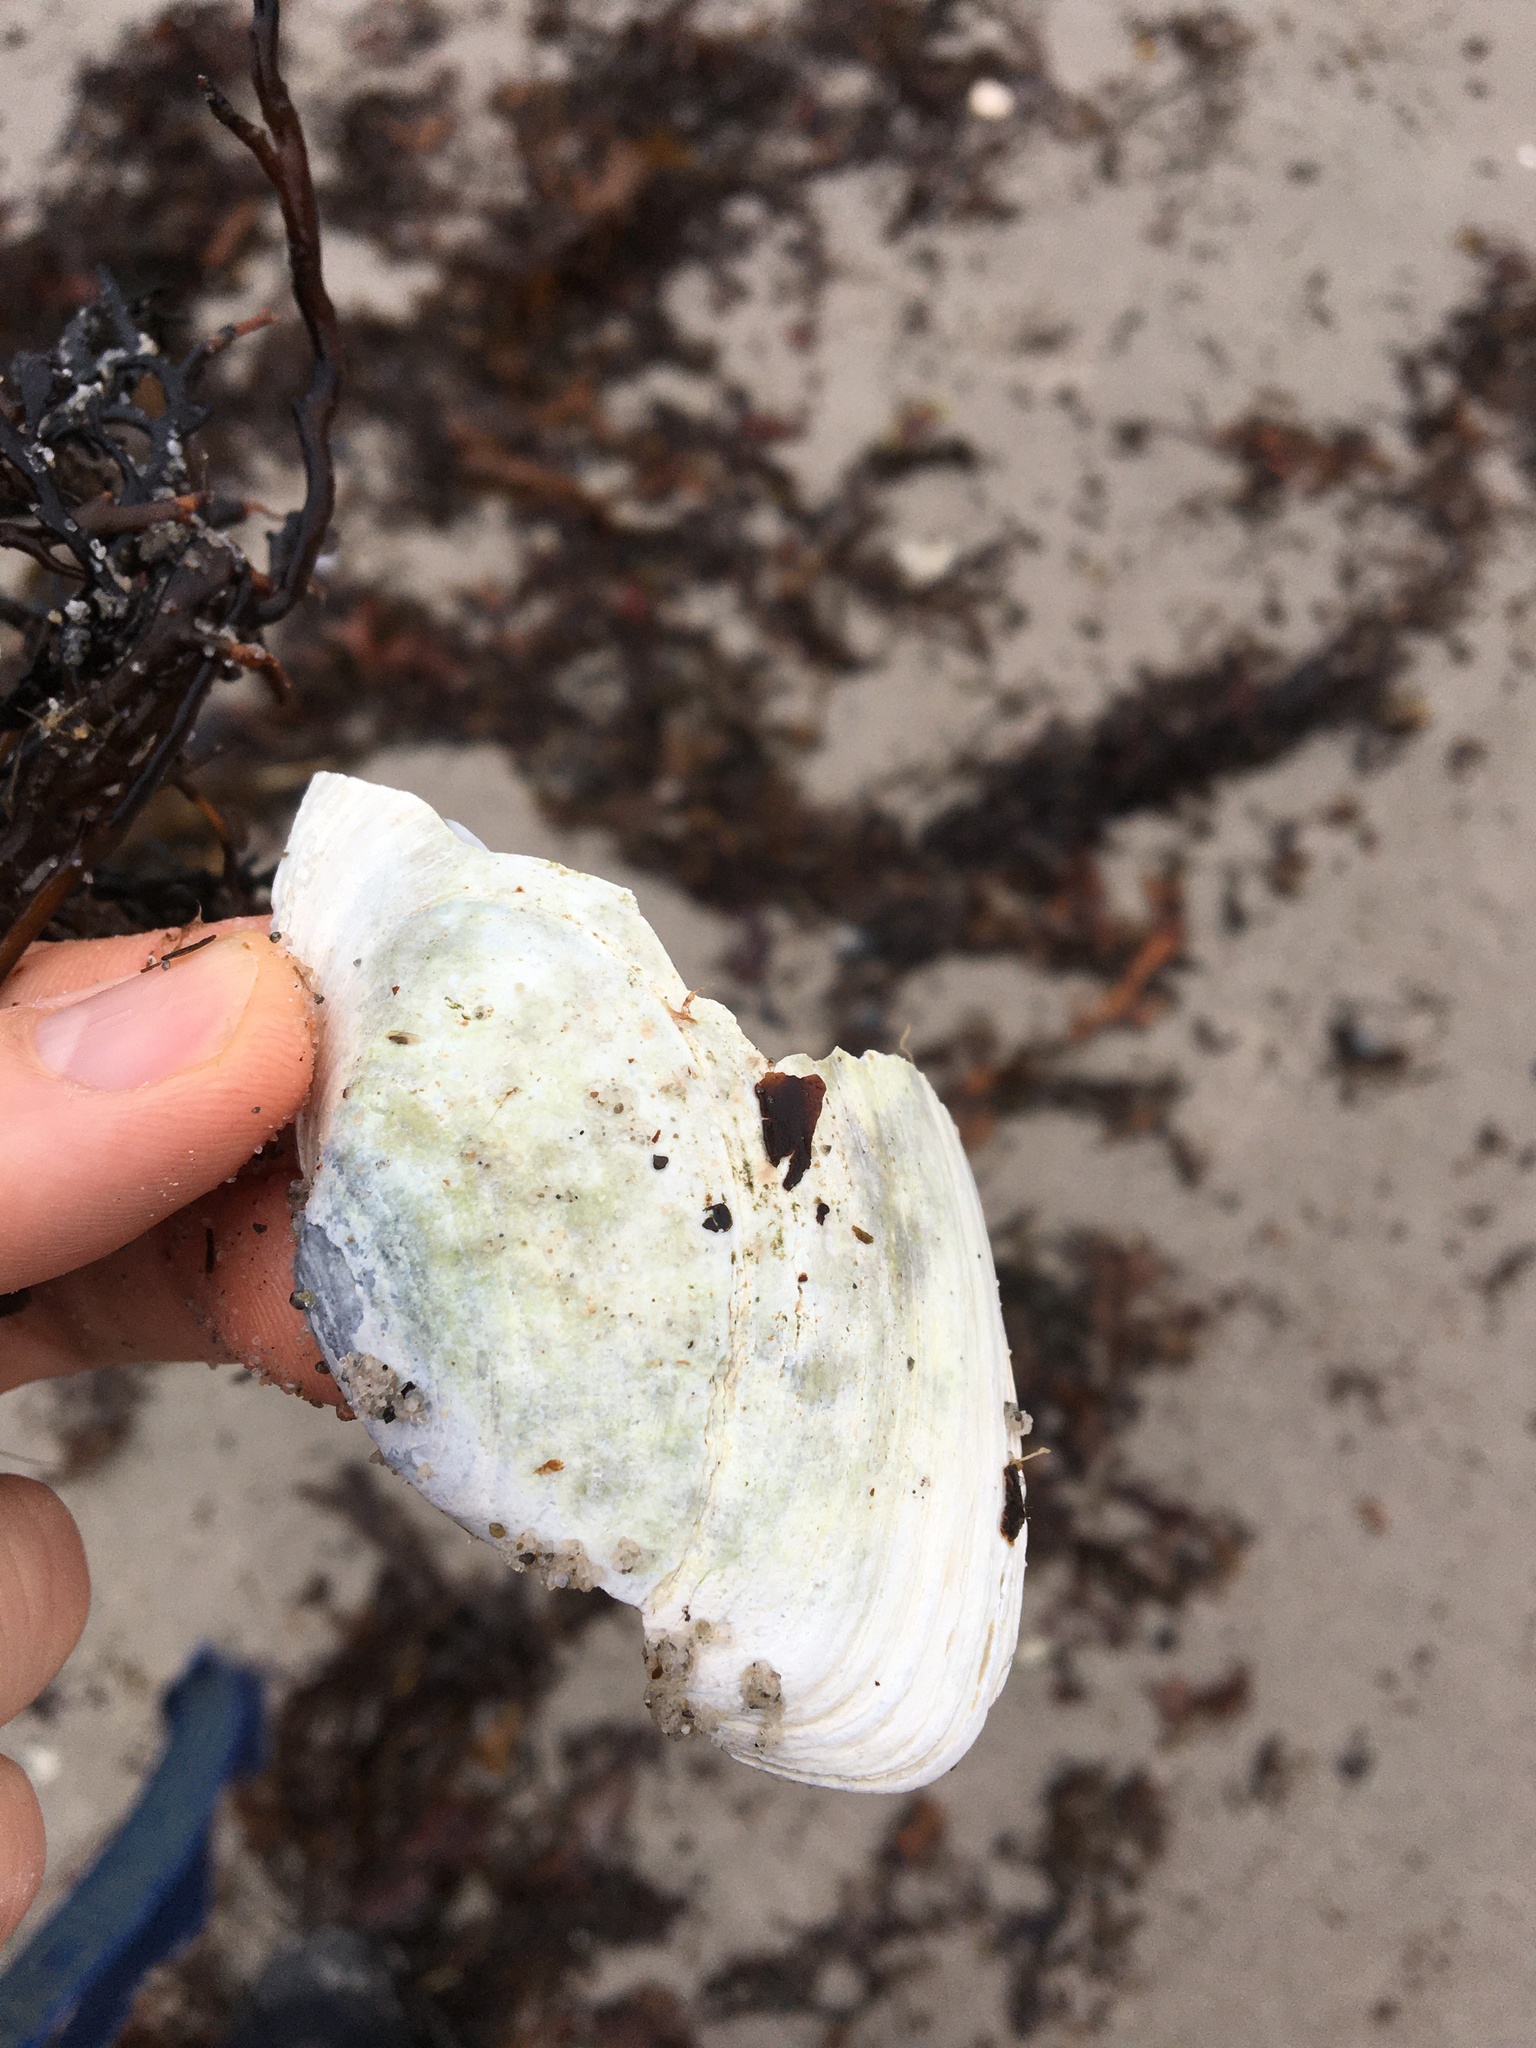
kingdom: Animalia
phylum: Mollusca
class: Bivalvia
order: Myida
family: Myidae
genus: Mya
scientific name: Mya arenaria
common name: Soft-shelled clam
